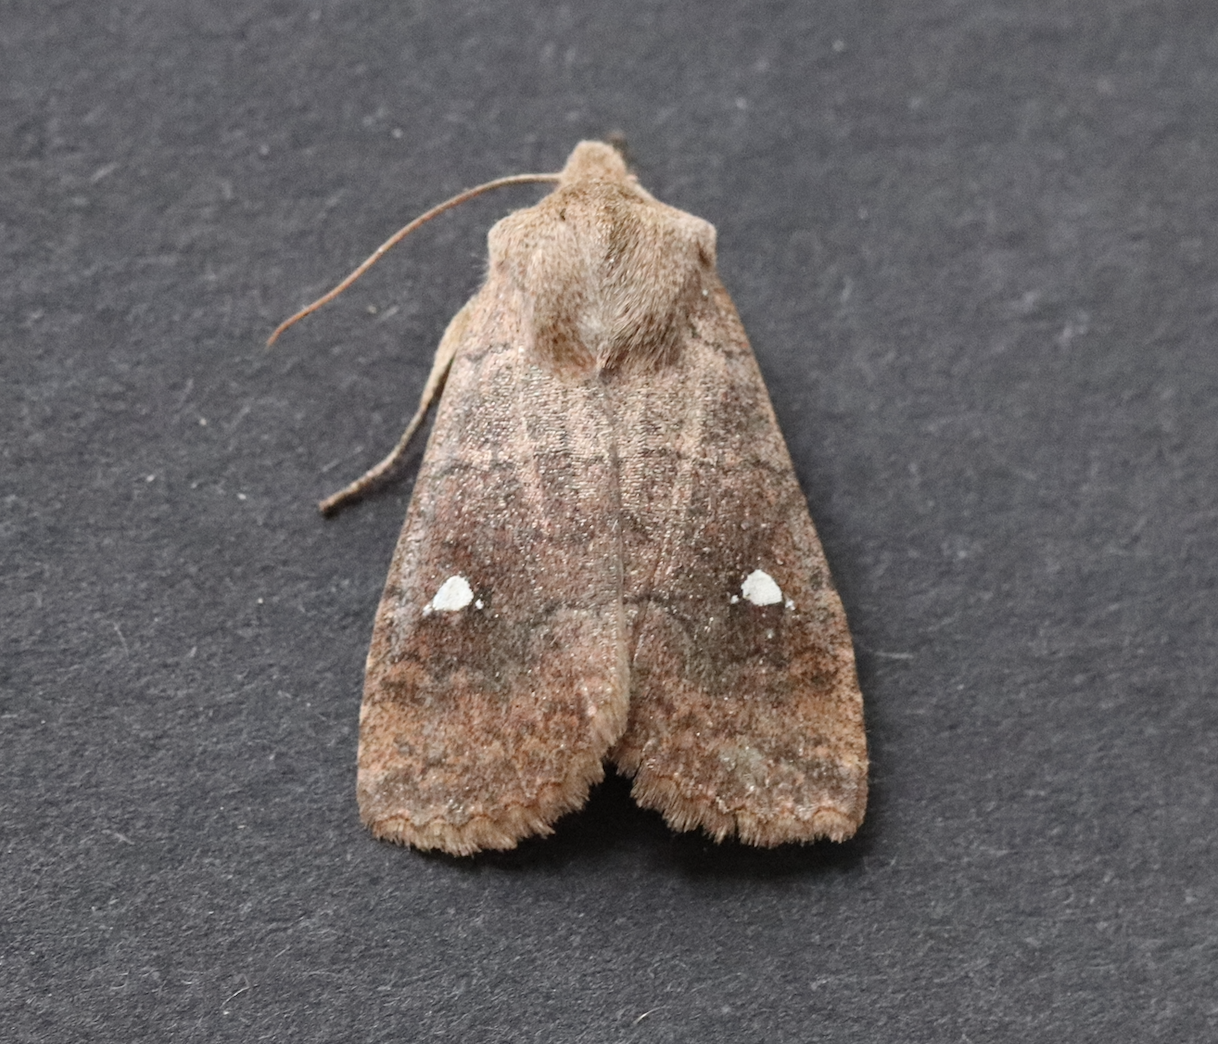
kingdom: Animalia
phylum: Arthropoda
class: Insecta
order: Lepidoptera
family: Noctuidae
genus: Eupsilia
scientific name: Eupsilia transversa
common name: Satellite
